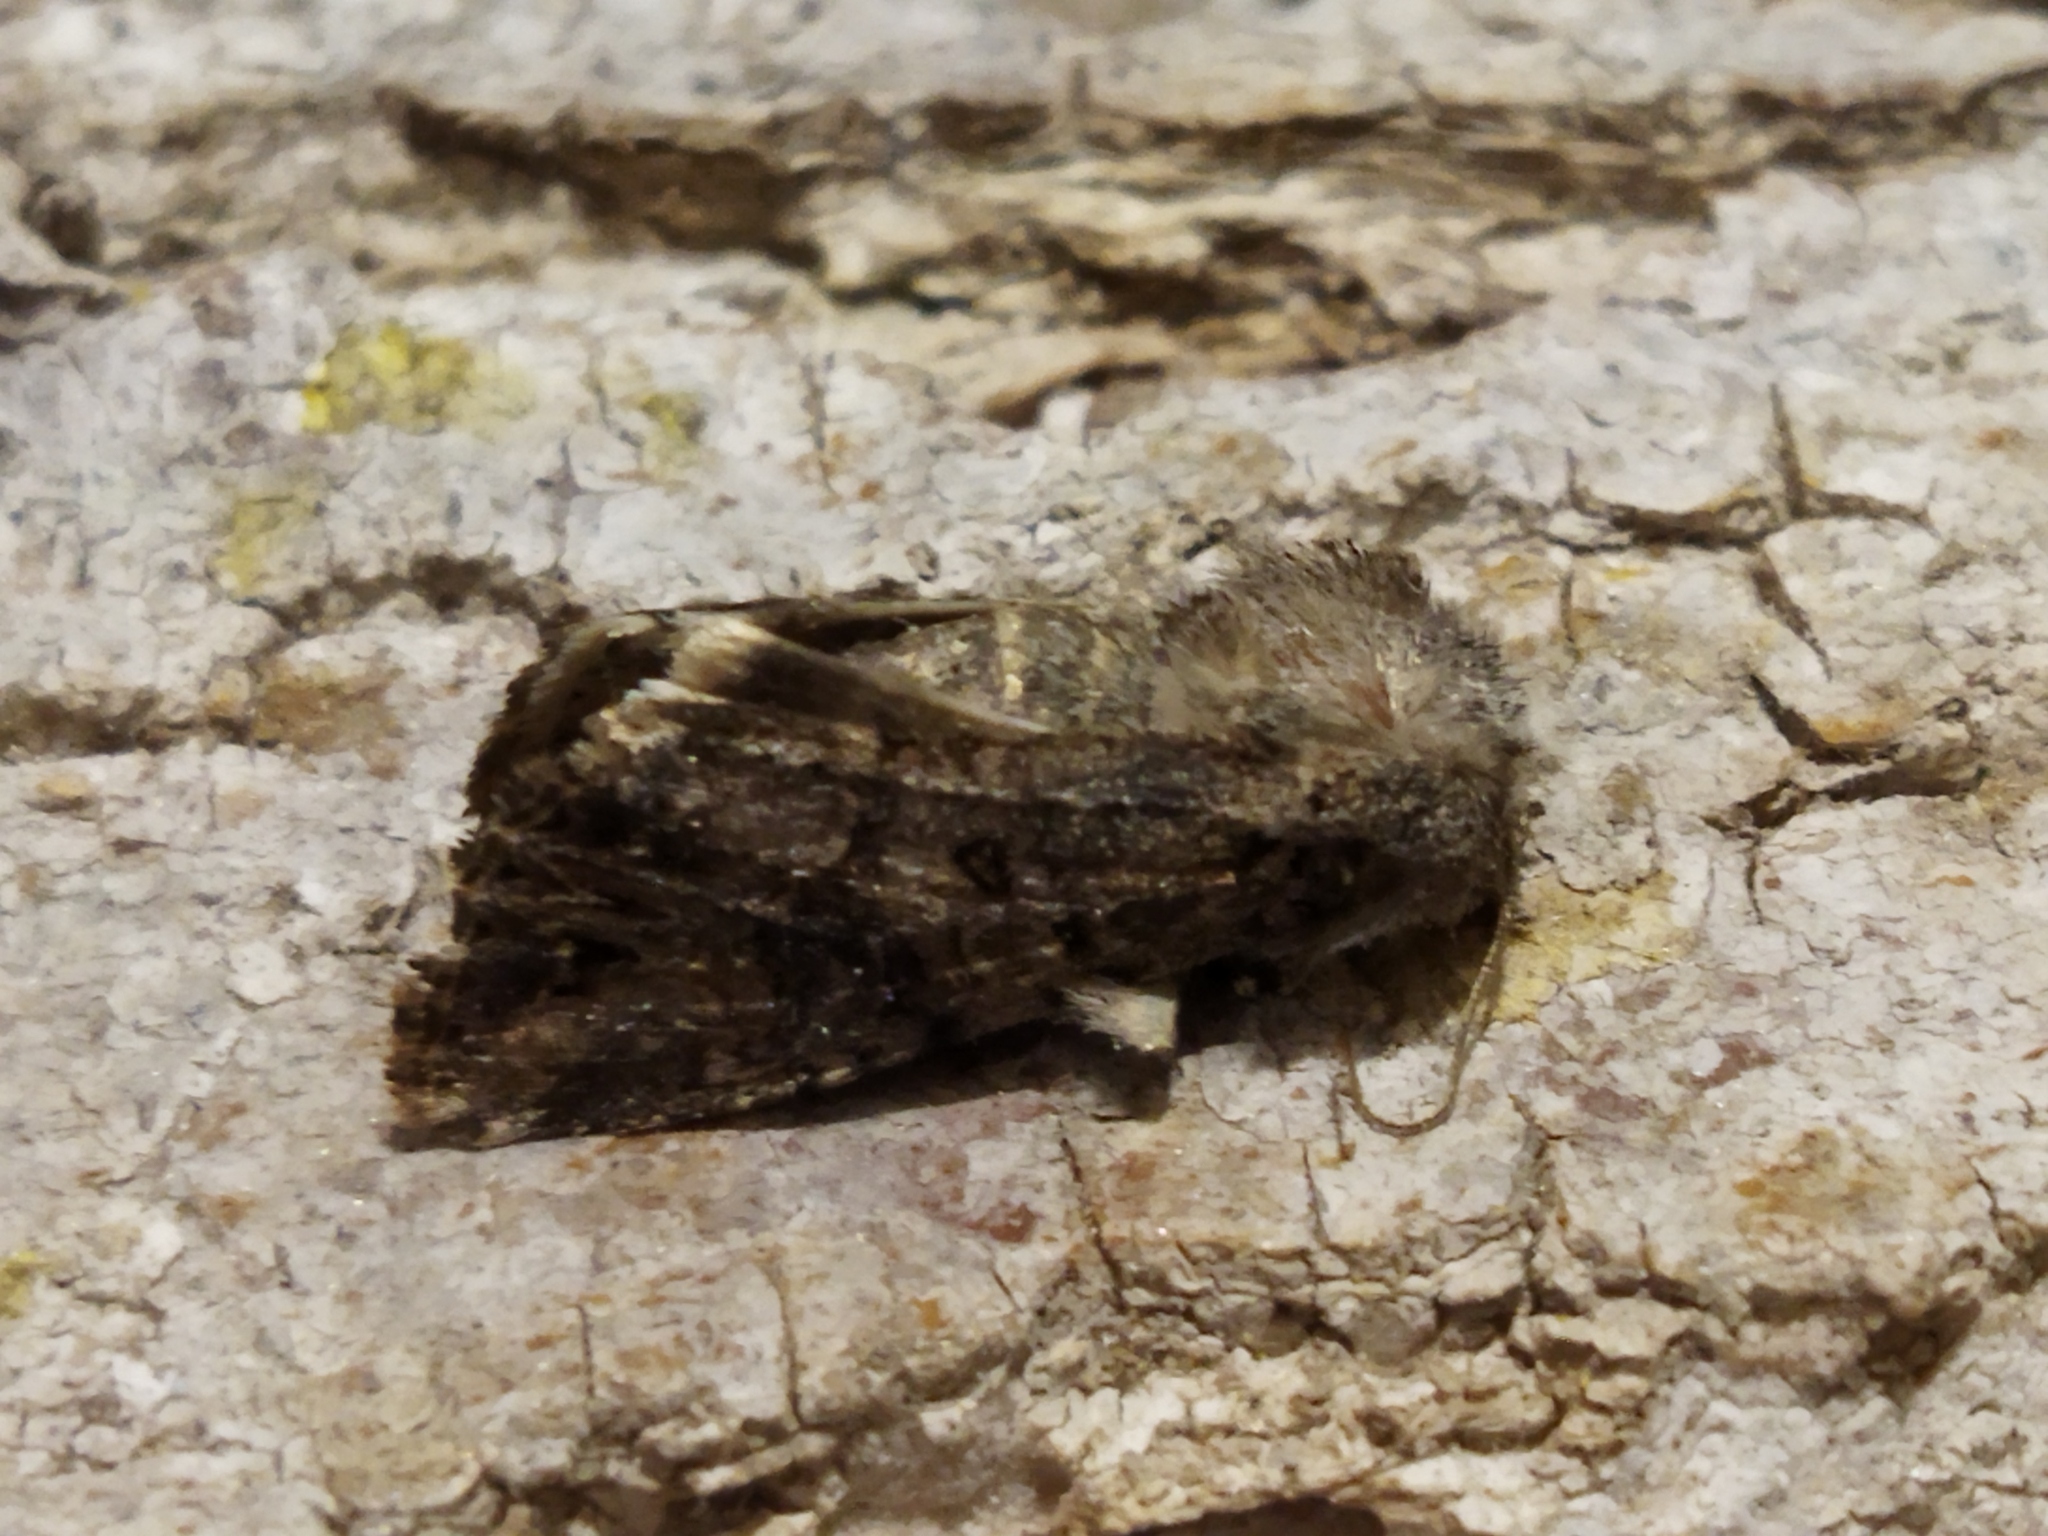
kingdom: Animalia
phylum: Arthropoda
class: Insecta
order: Lepidoptera
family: Noctuidae
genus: Anarta
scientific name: Anarta
